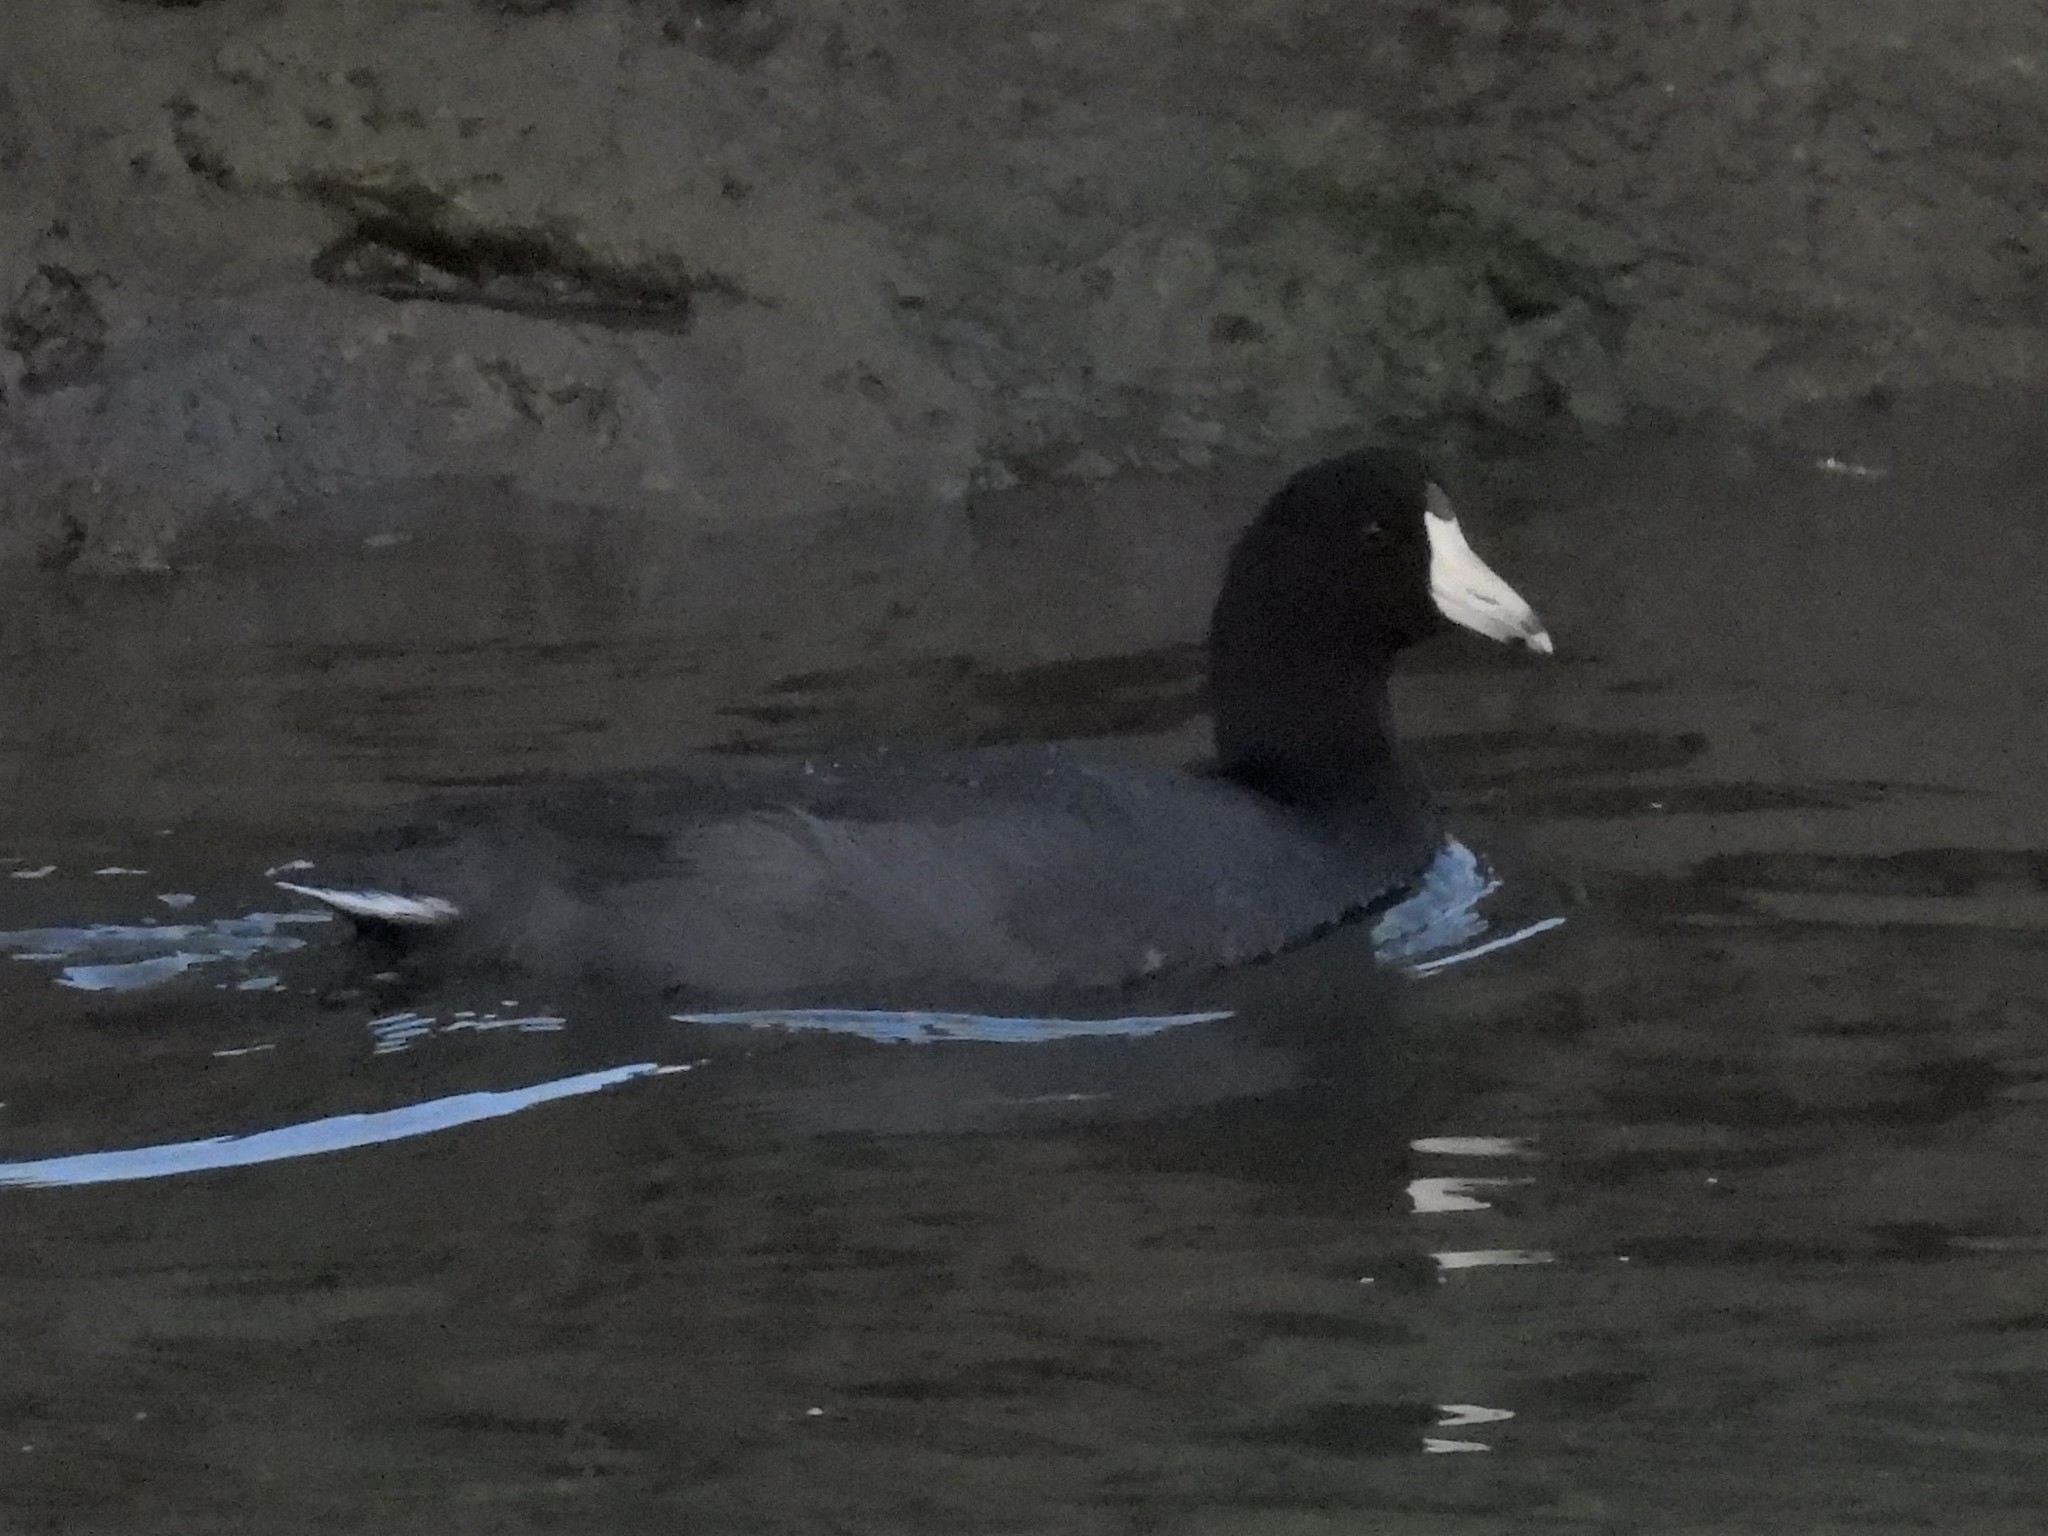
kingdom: Animalia
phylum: Chordata
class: Aves
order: Gruiformes
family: Rallidae
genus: Fulica
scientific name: Fulica americana
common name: American coot
